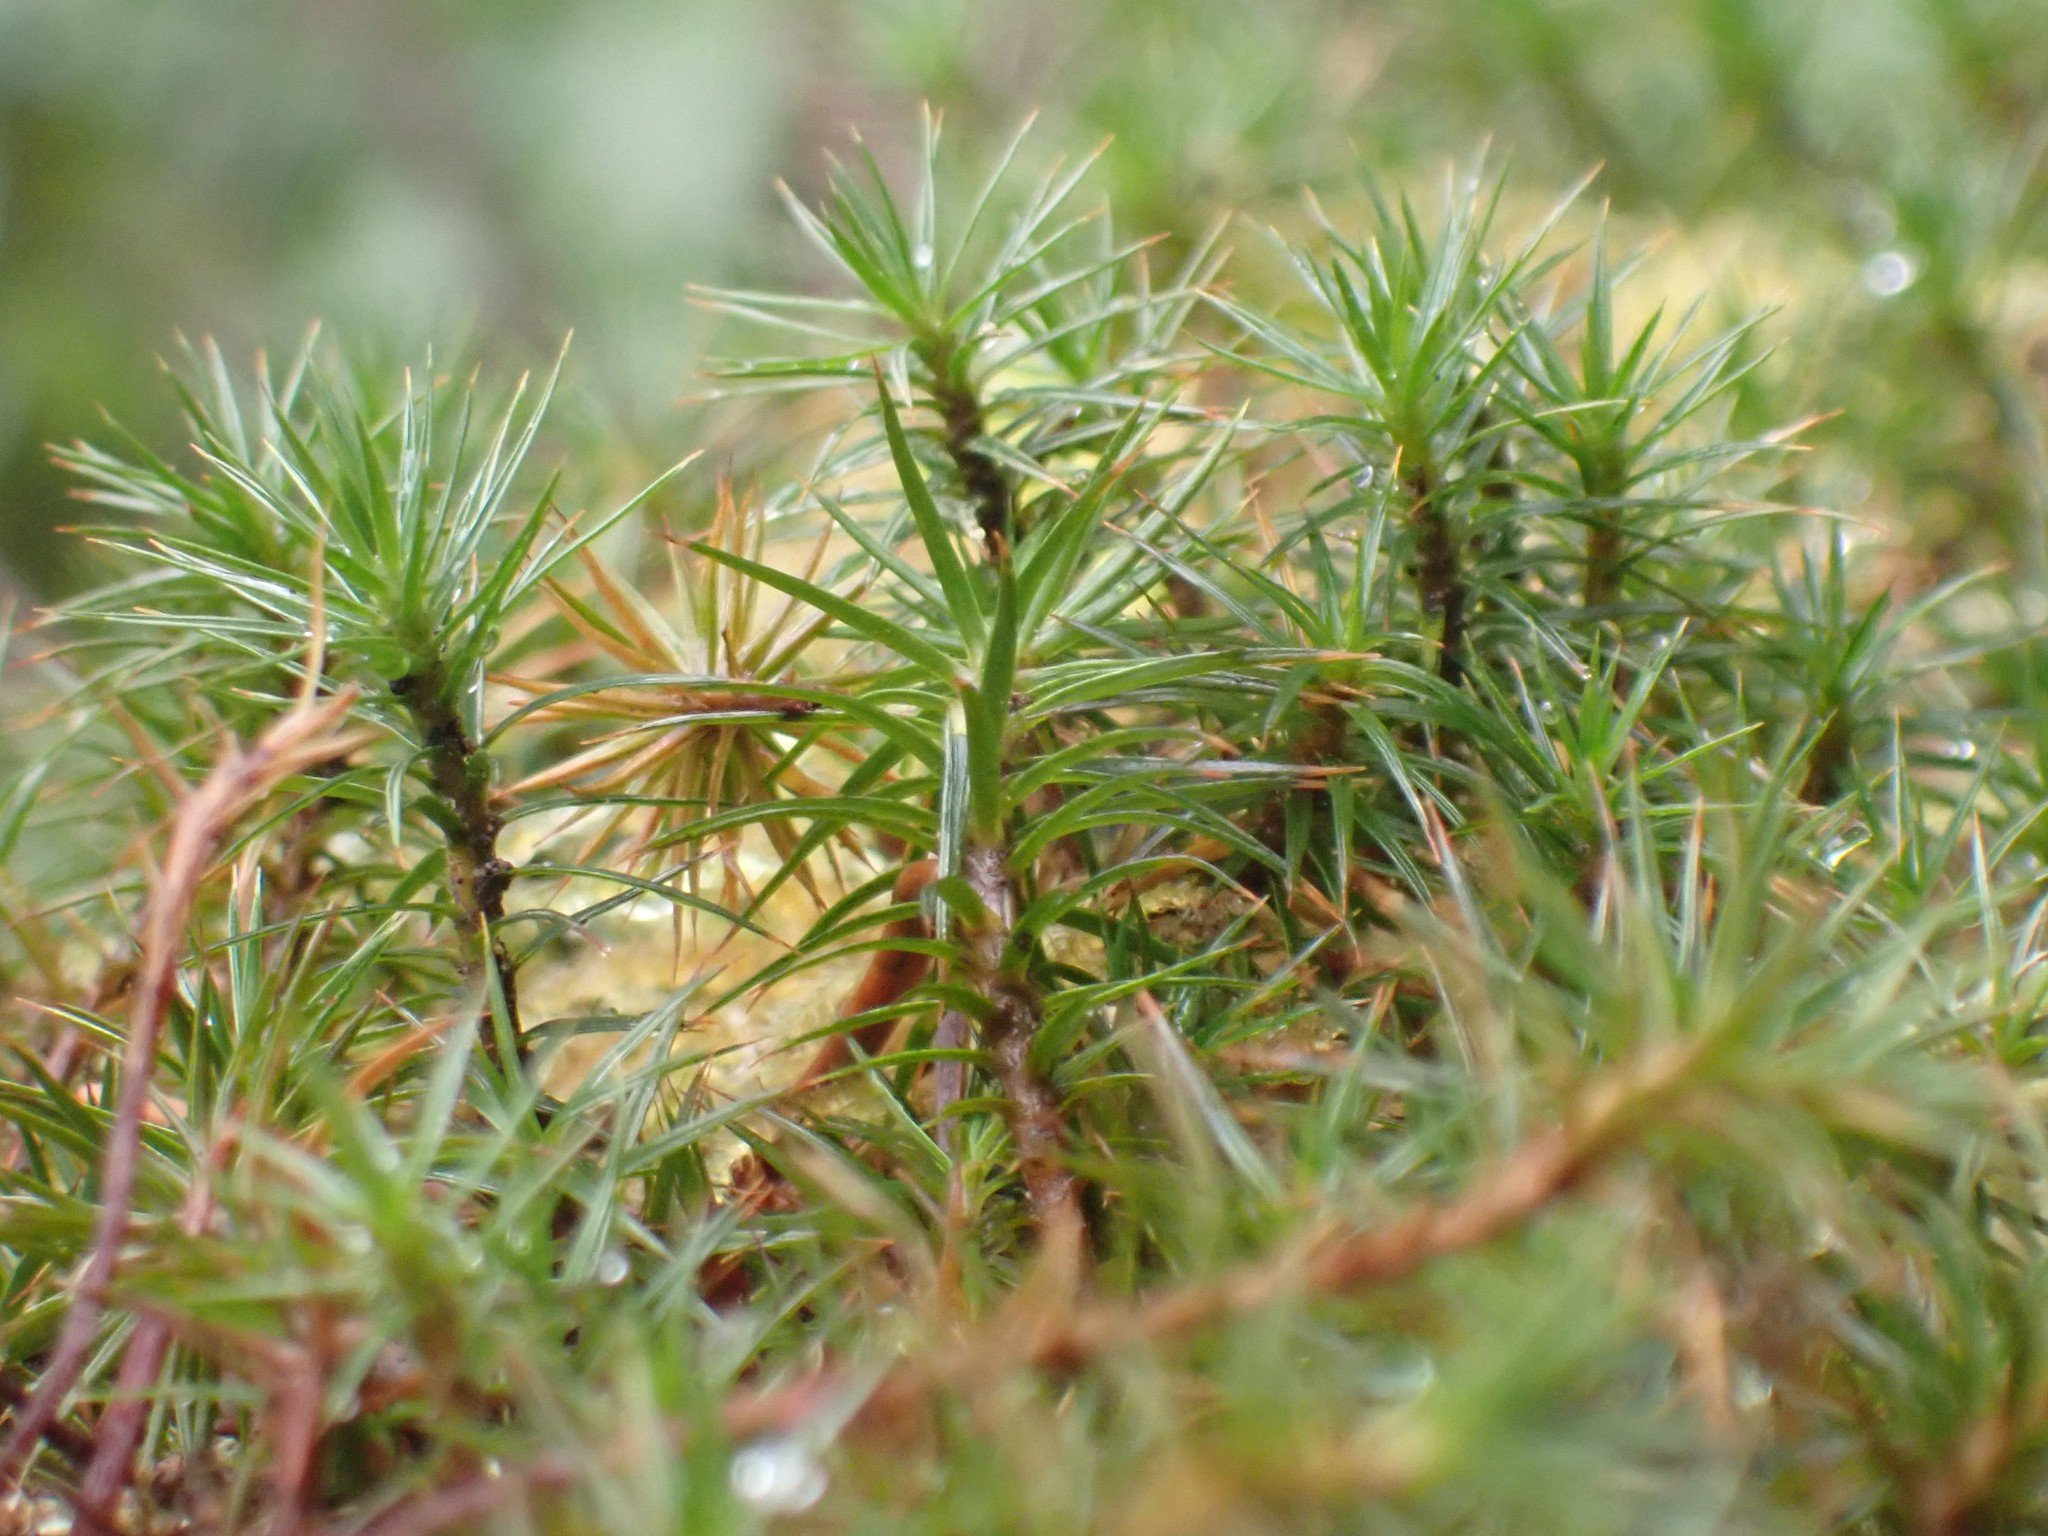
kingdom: Plantae
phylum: Bryophyta
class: Polytrichopsida
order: Polytrichales
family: Polytrichaceae
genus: Polytrichum
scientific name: Polytrichum juniperinum
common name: Juniper haircap moss
